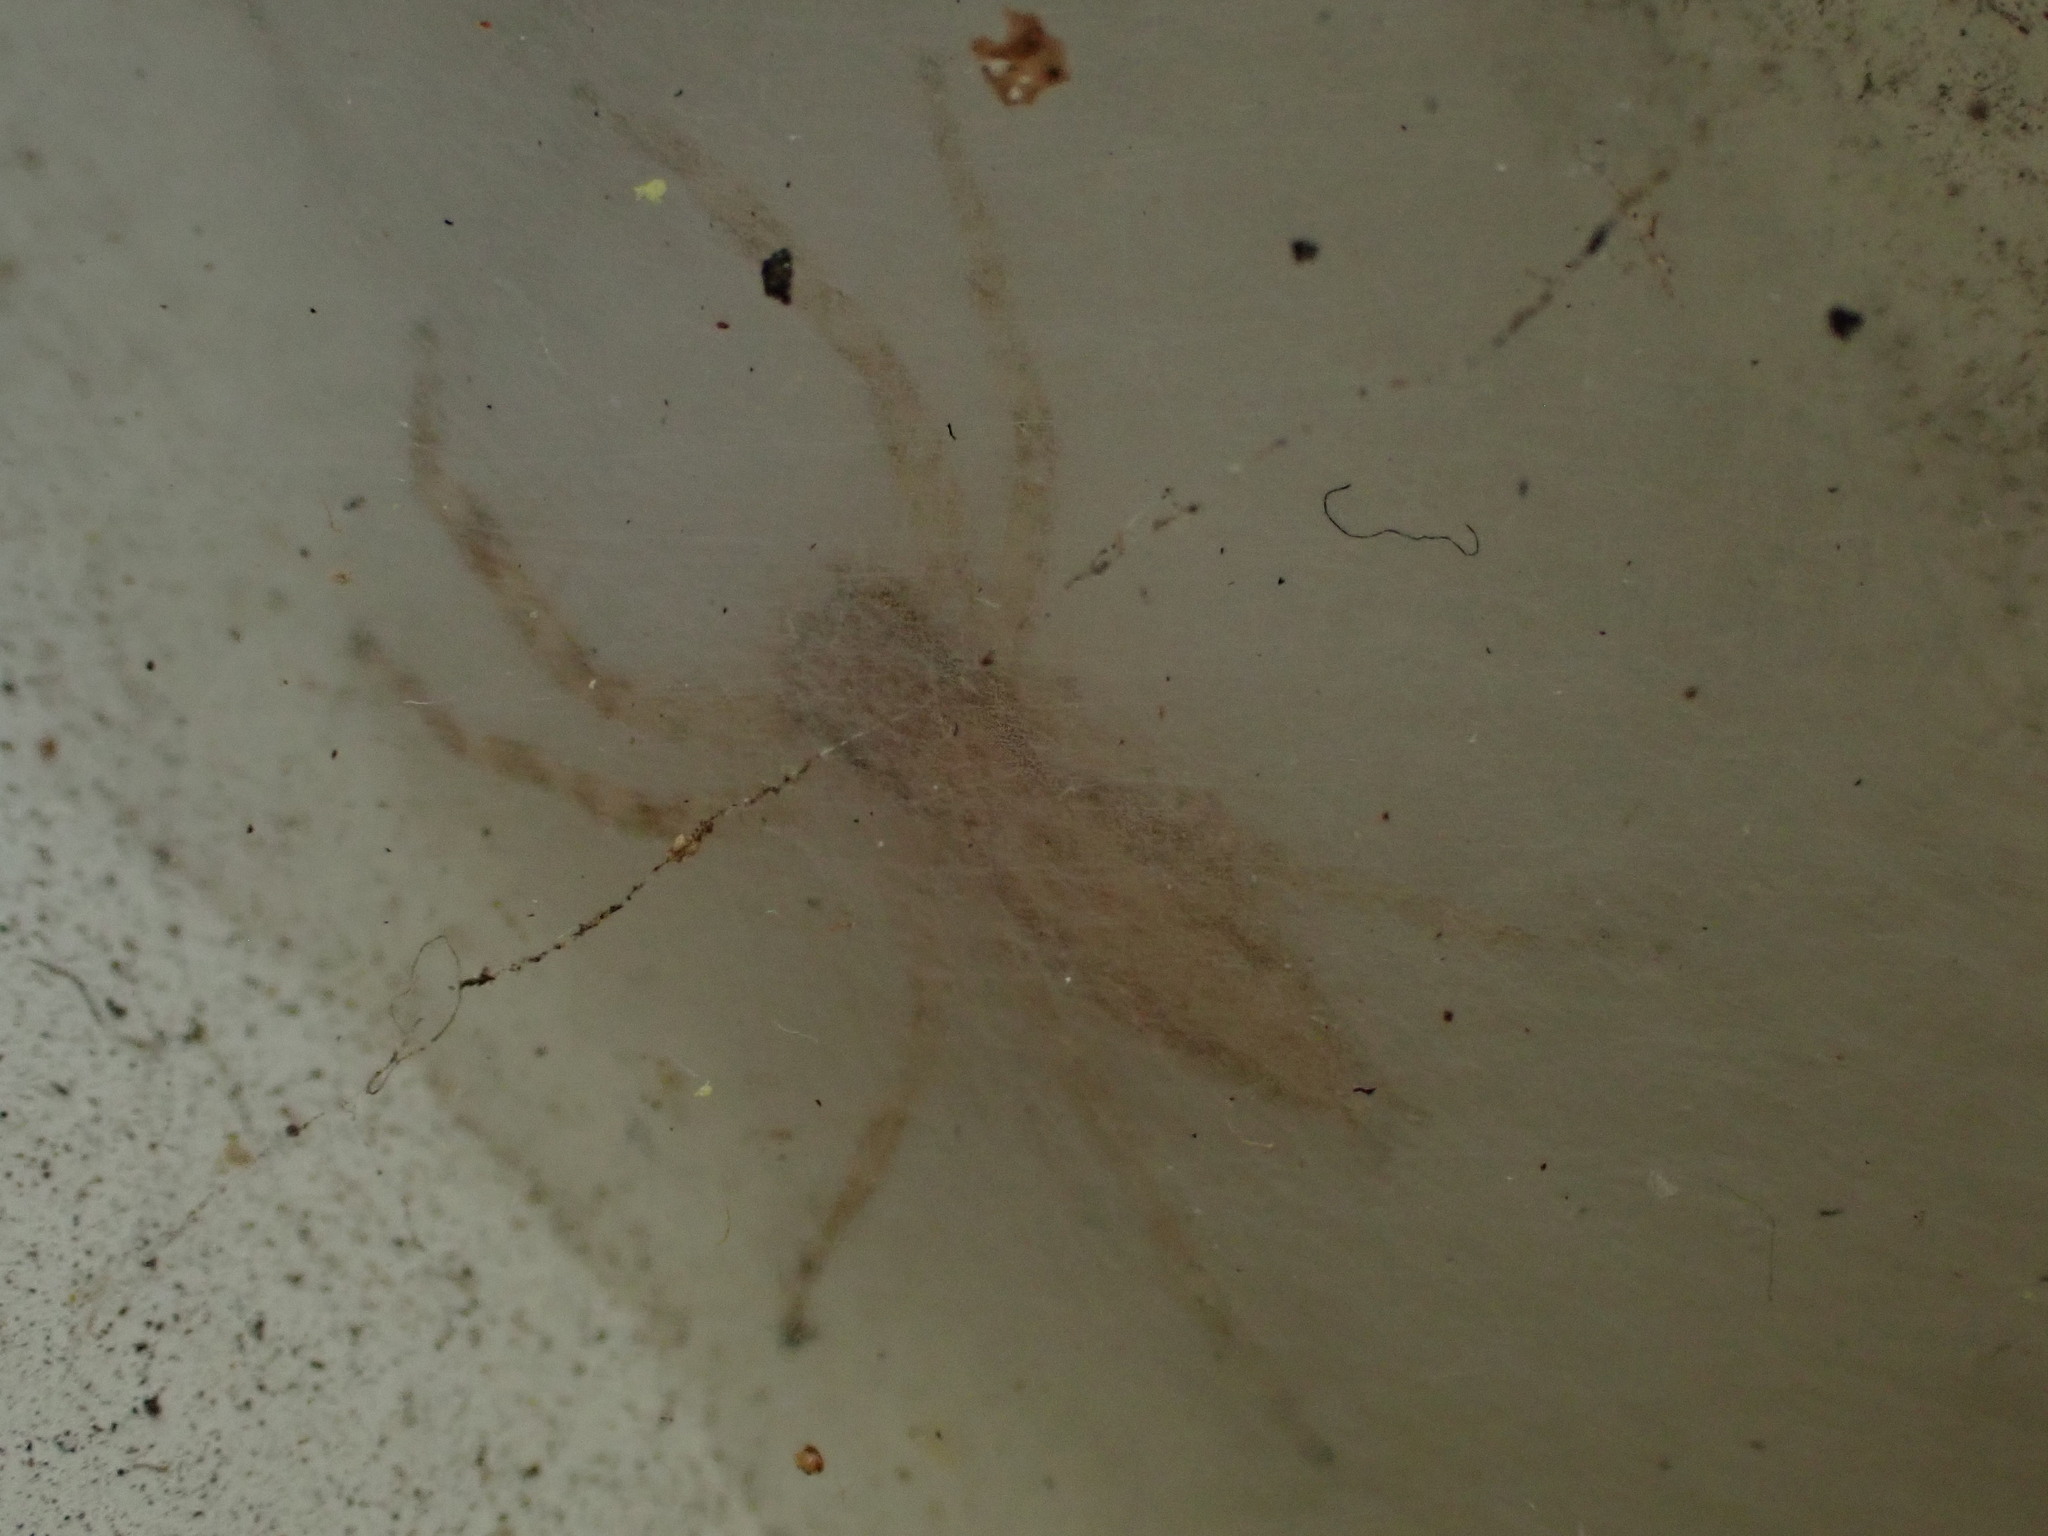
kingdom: Animalia
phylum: Arthropoda
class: Arachnida
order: Araneae
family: Salticidae
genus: Helpis
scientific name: Helpis minitabunda
